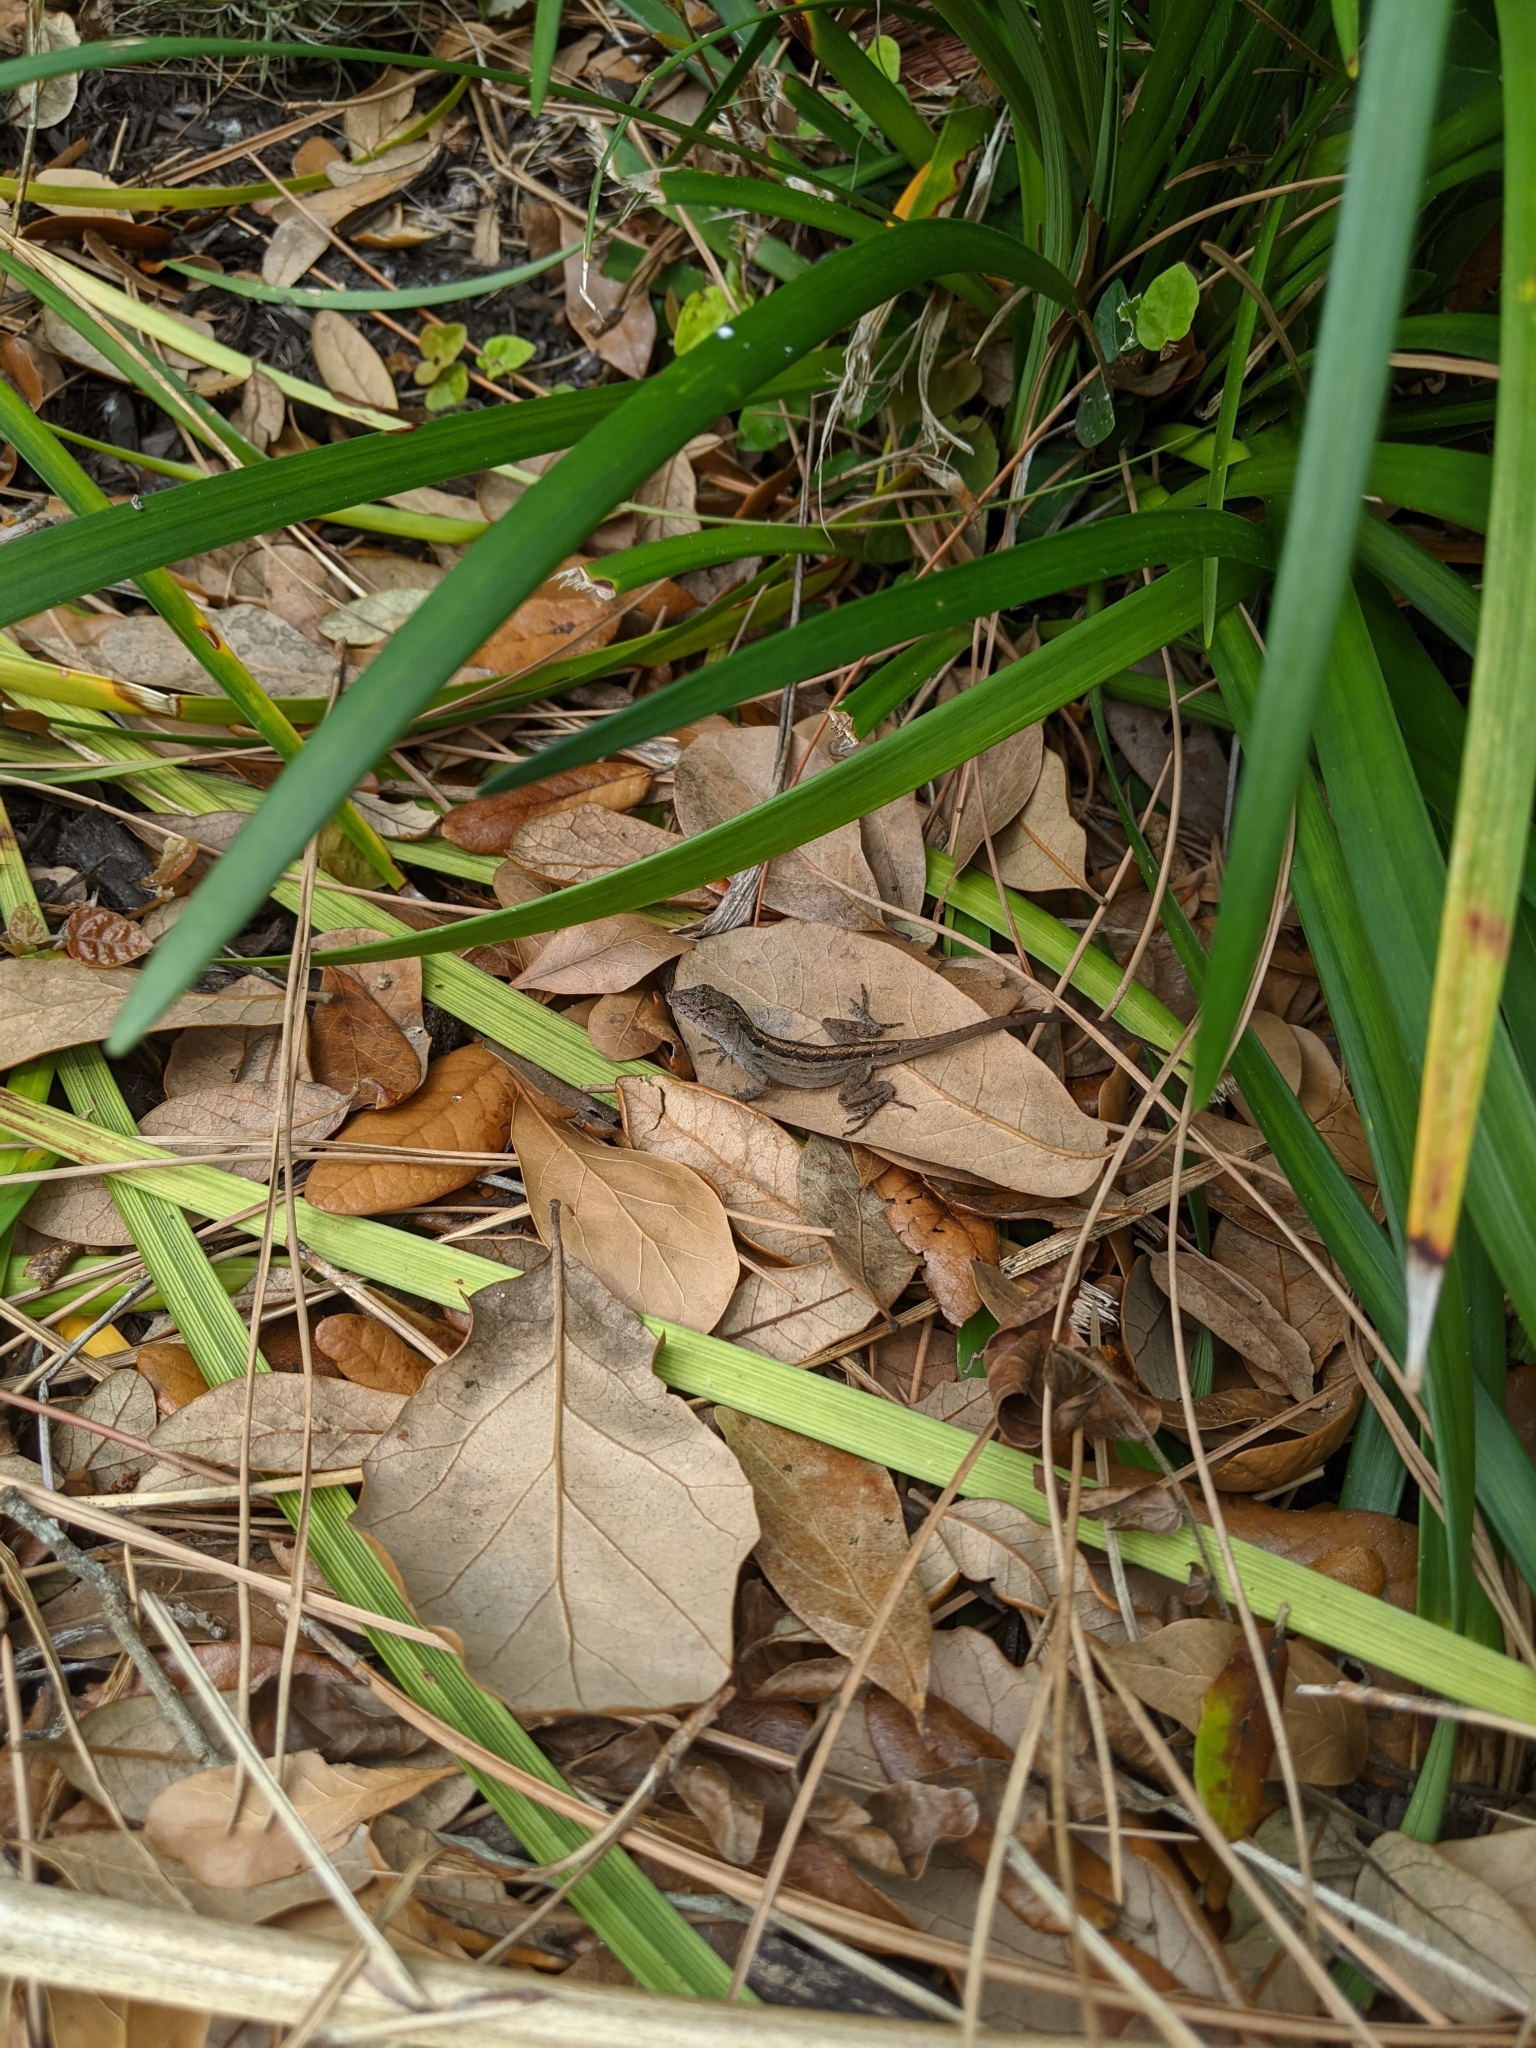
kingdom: Animalia
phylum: Chordata
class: Squamata
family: Dactyloidae
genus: Anolis
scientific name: Anolis sagrei
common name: Brown anole
